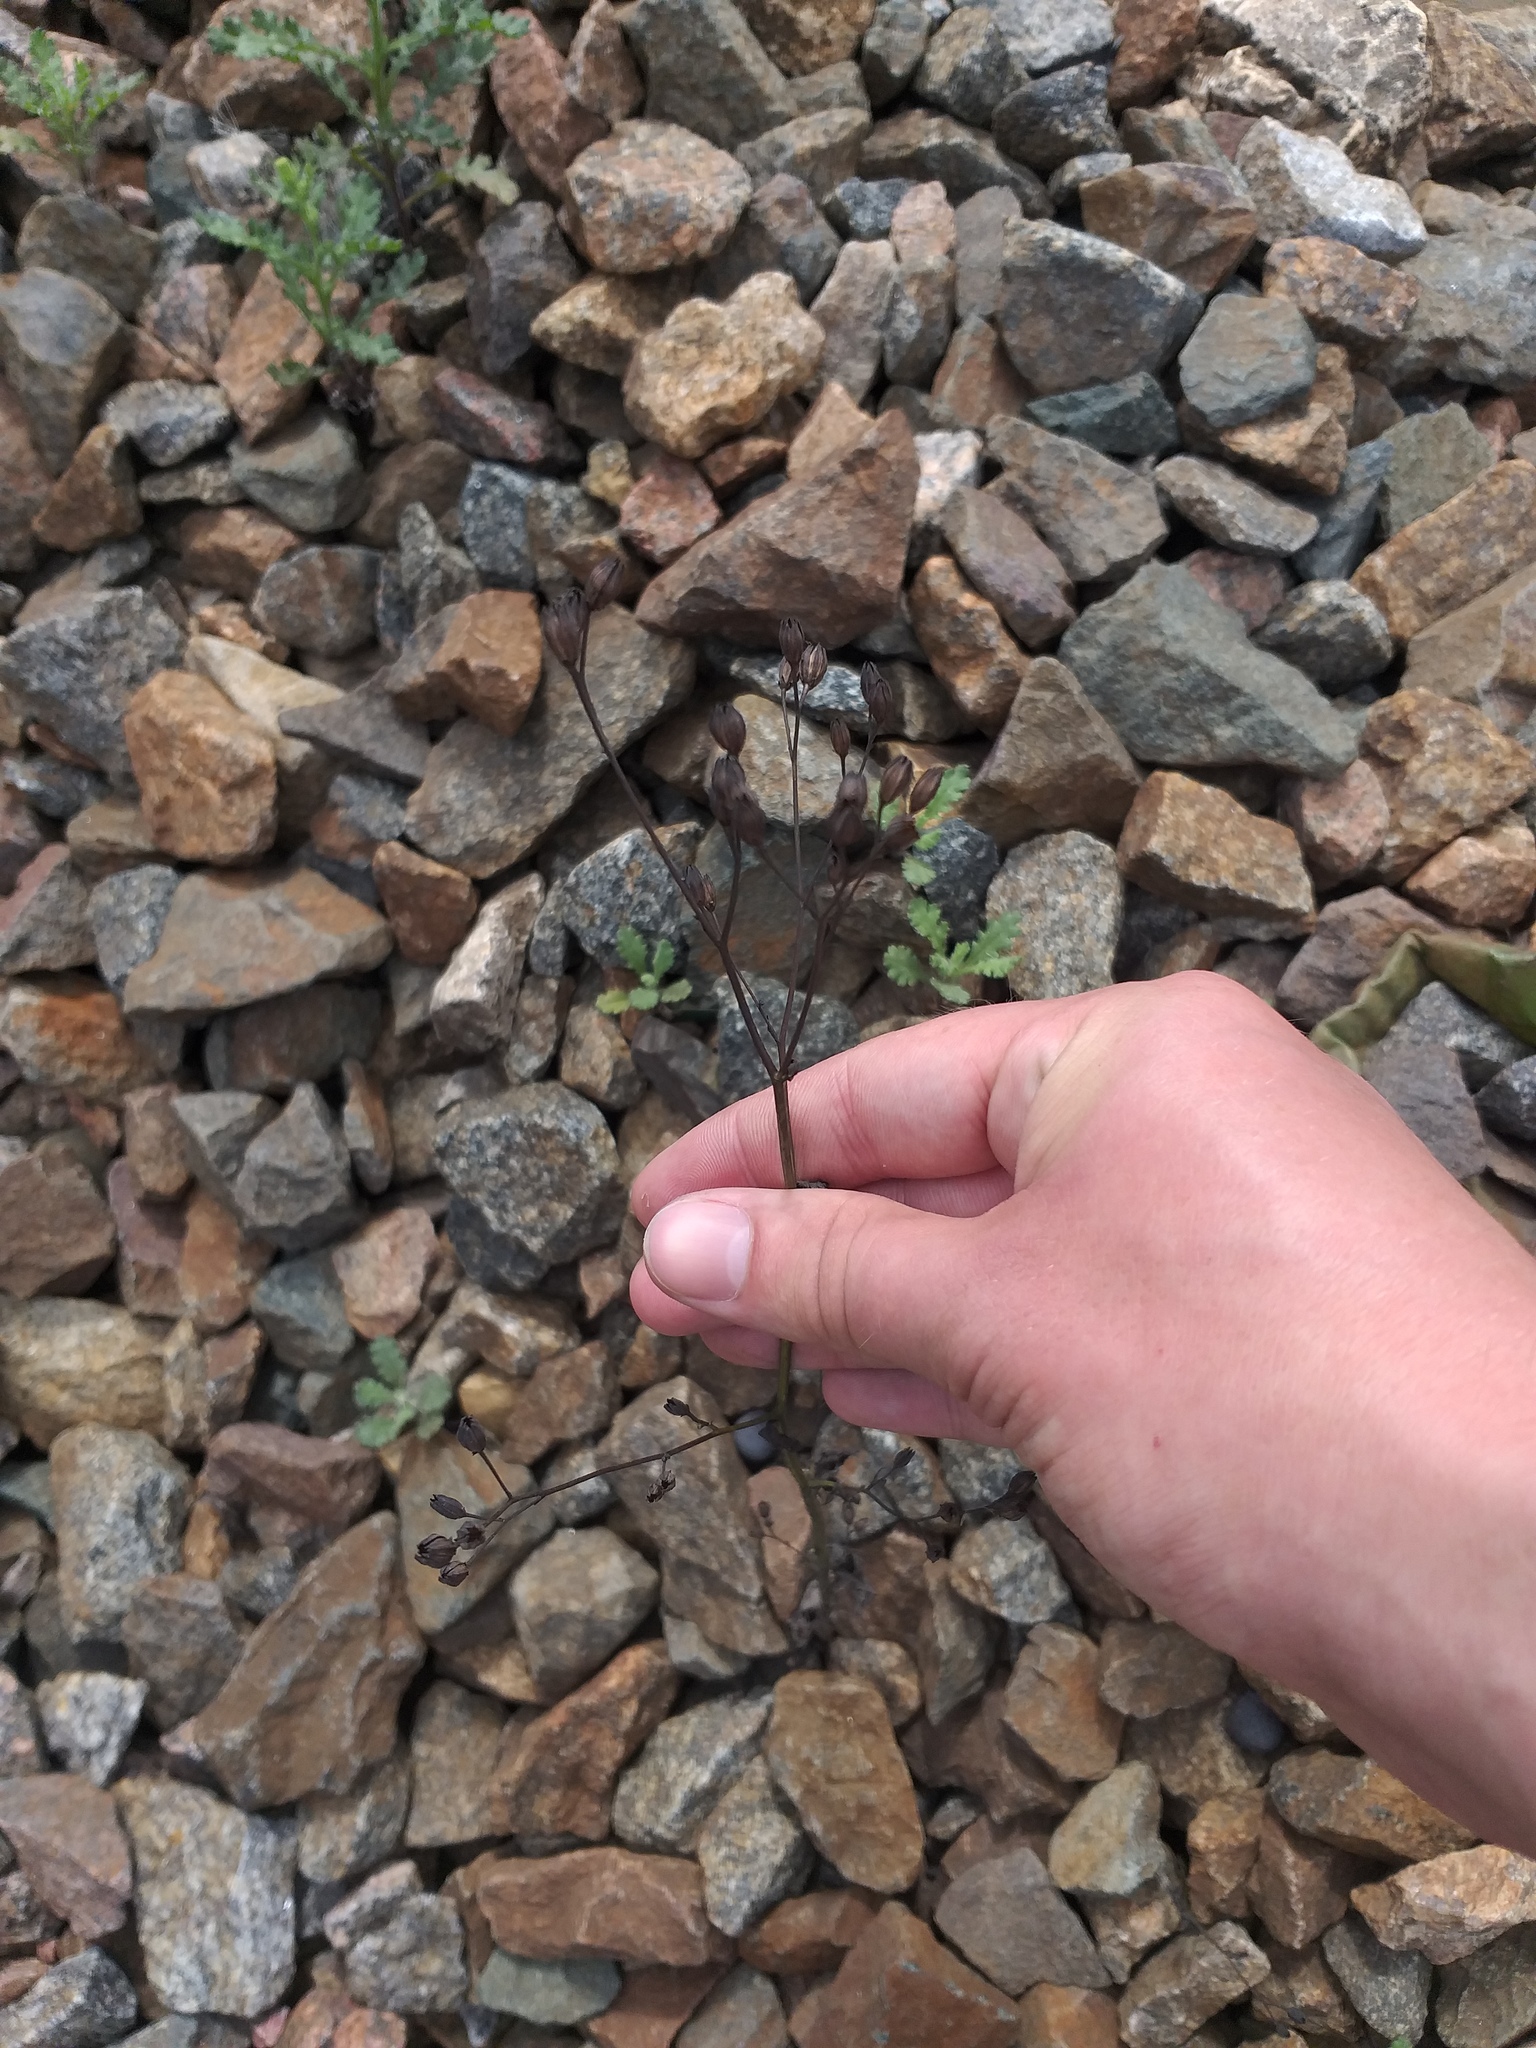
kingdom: Plantae
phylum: Tracheophyta
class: Magnoliopsida
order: Asterales
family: Asteraceae
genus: Lapsana
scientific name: Lapsana communis
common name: Nipplewort
